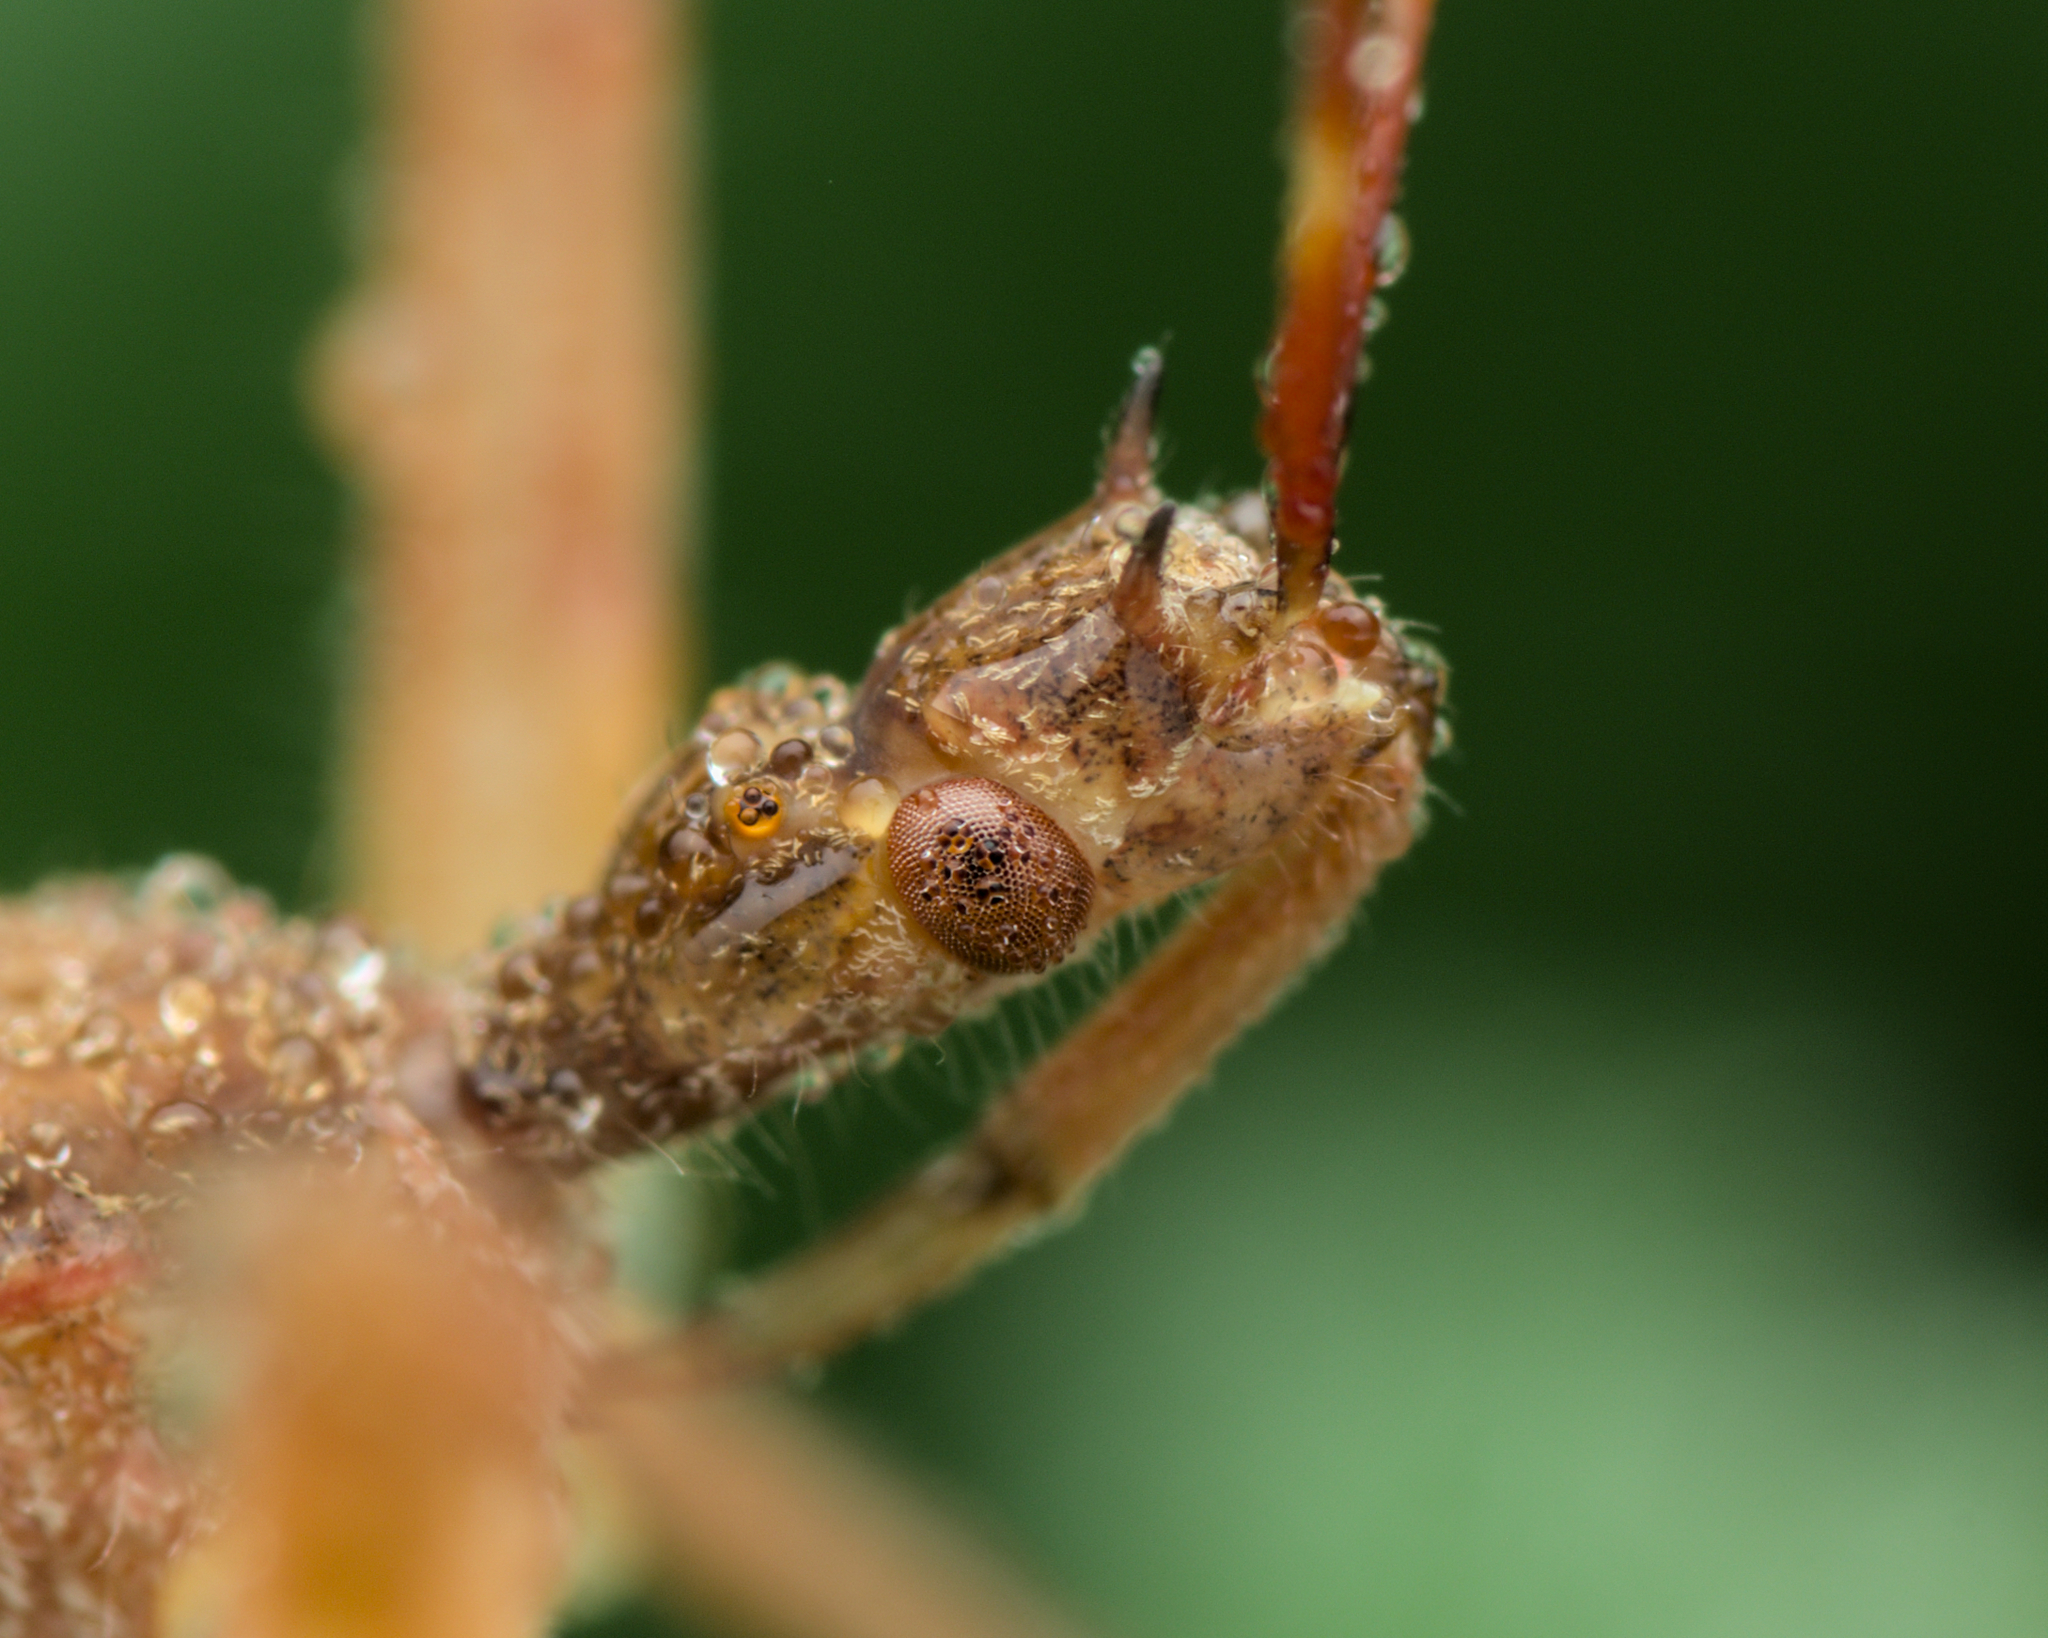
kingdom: Animalia
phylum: Arthropoda
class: Insecta
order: Hemiptera
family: Reduviidae
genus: Nagusta
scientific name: Nagusta goedelii
